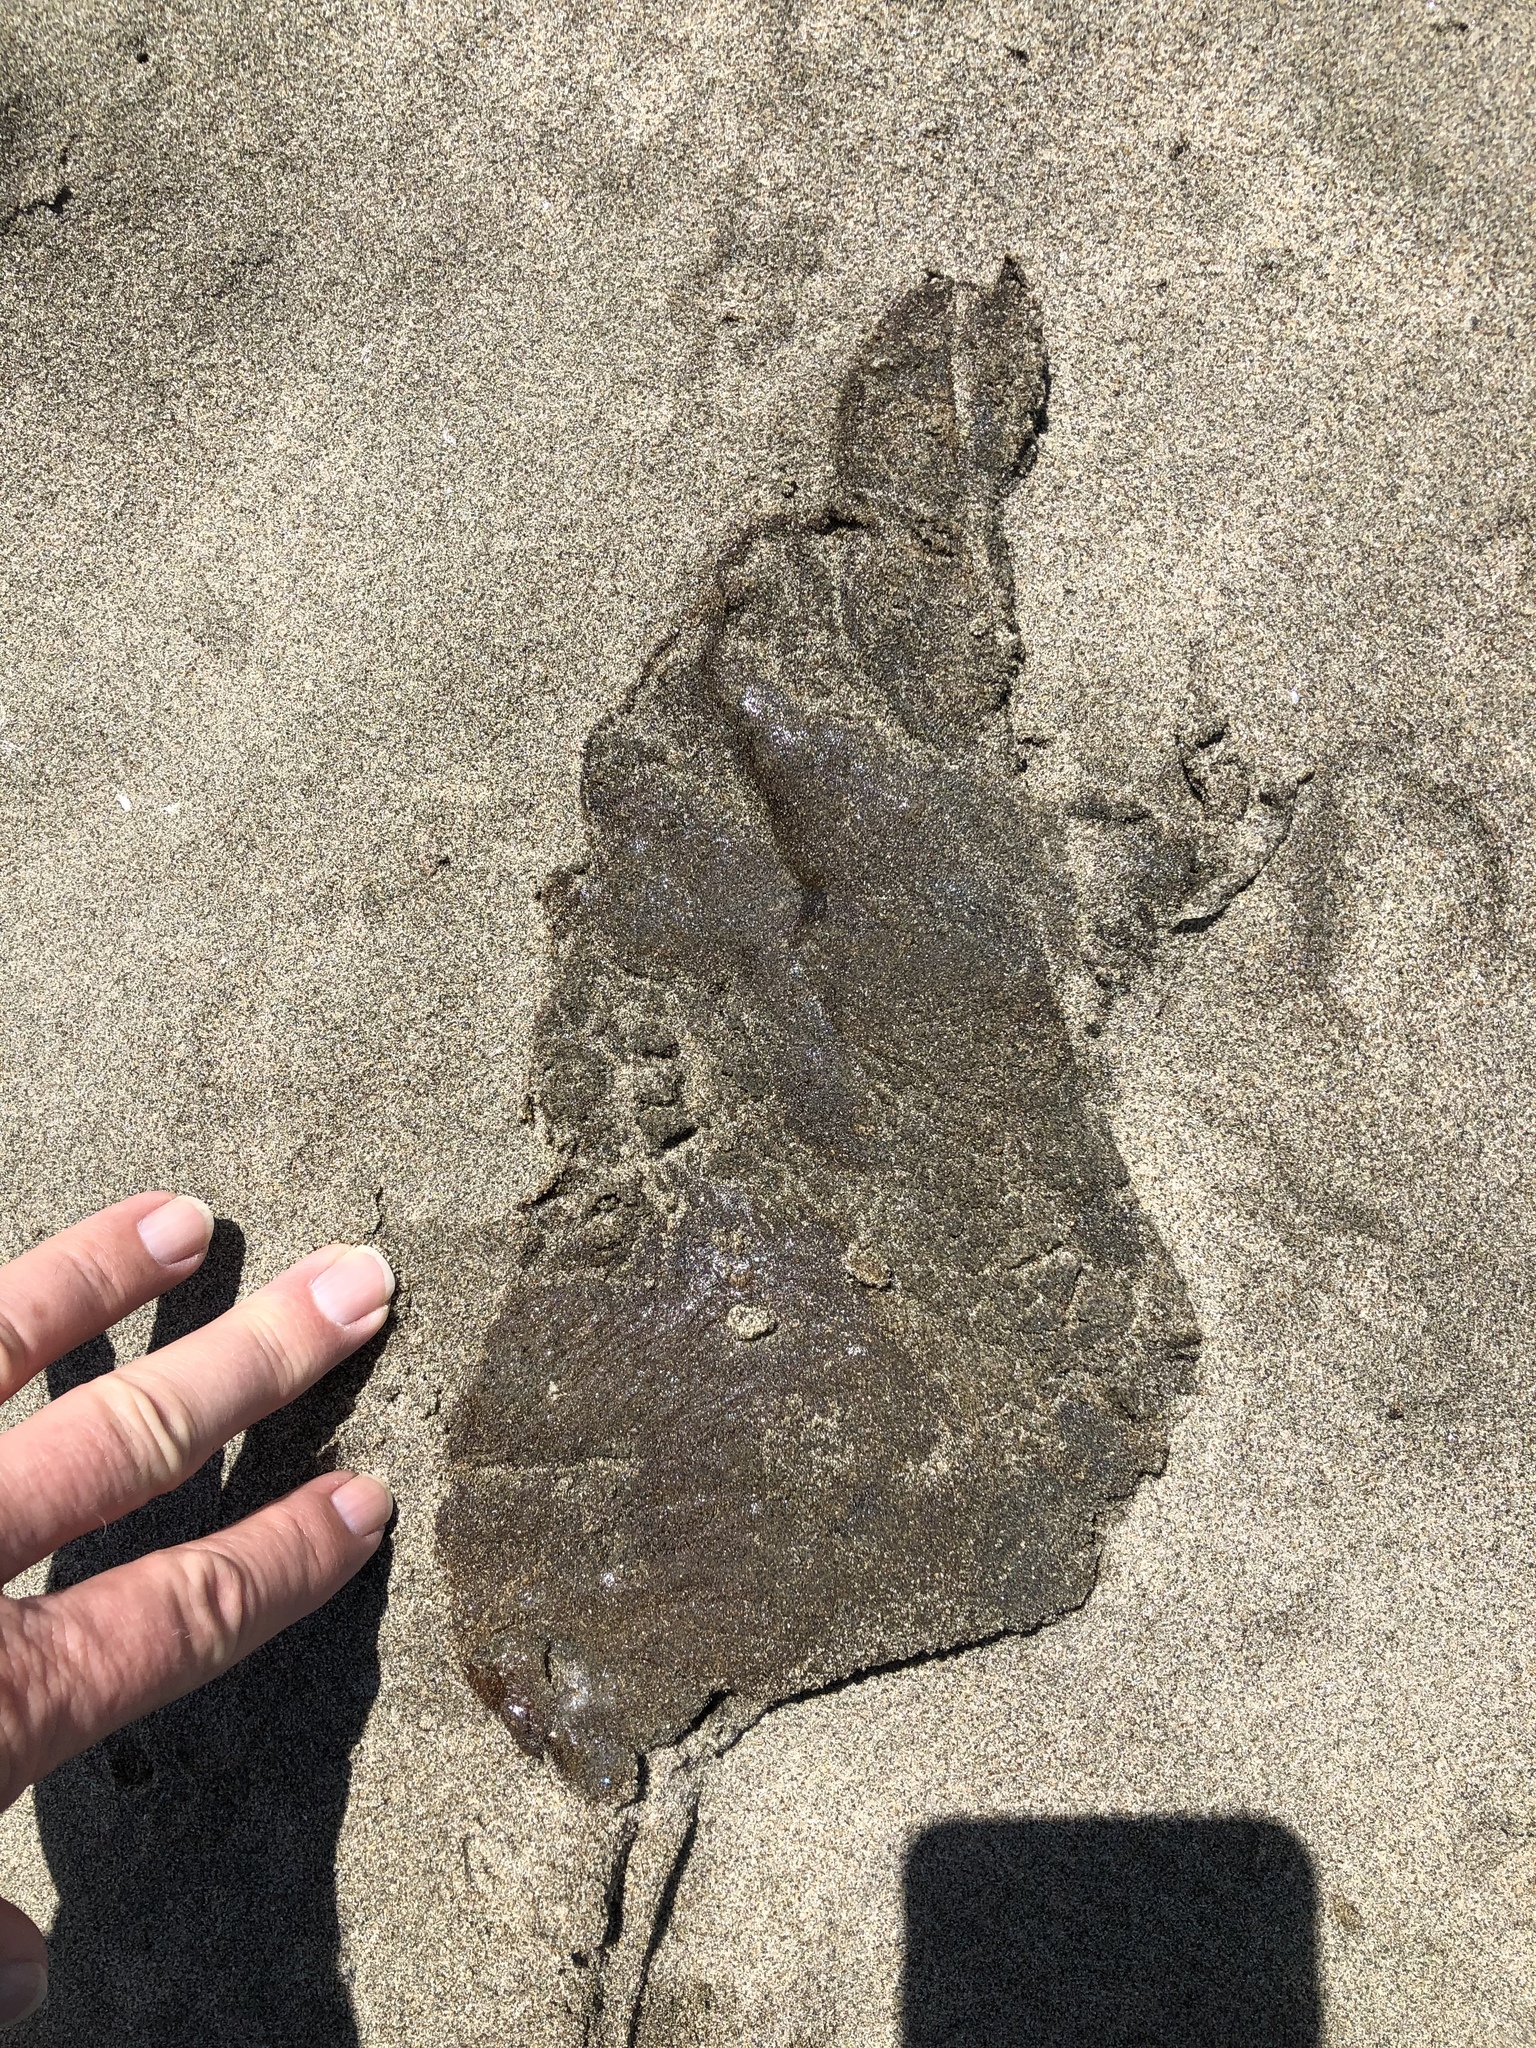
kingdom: Animalia
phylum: Cnidaria
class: Scyphozoa
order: Semaeostomeae
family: Pelagiidae
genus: Chrysaora
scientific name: Chrysaora fuscescens
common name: Sea nettle
